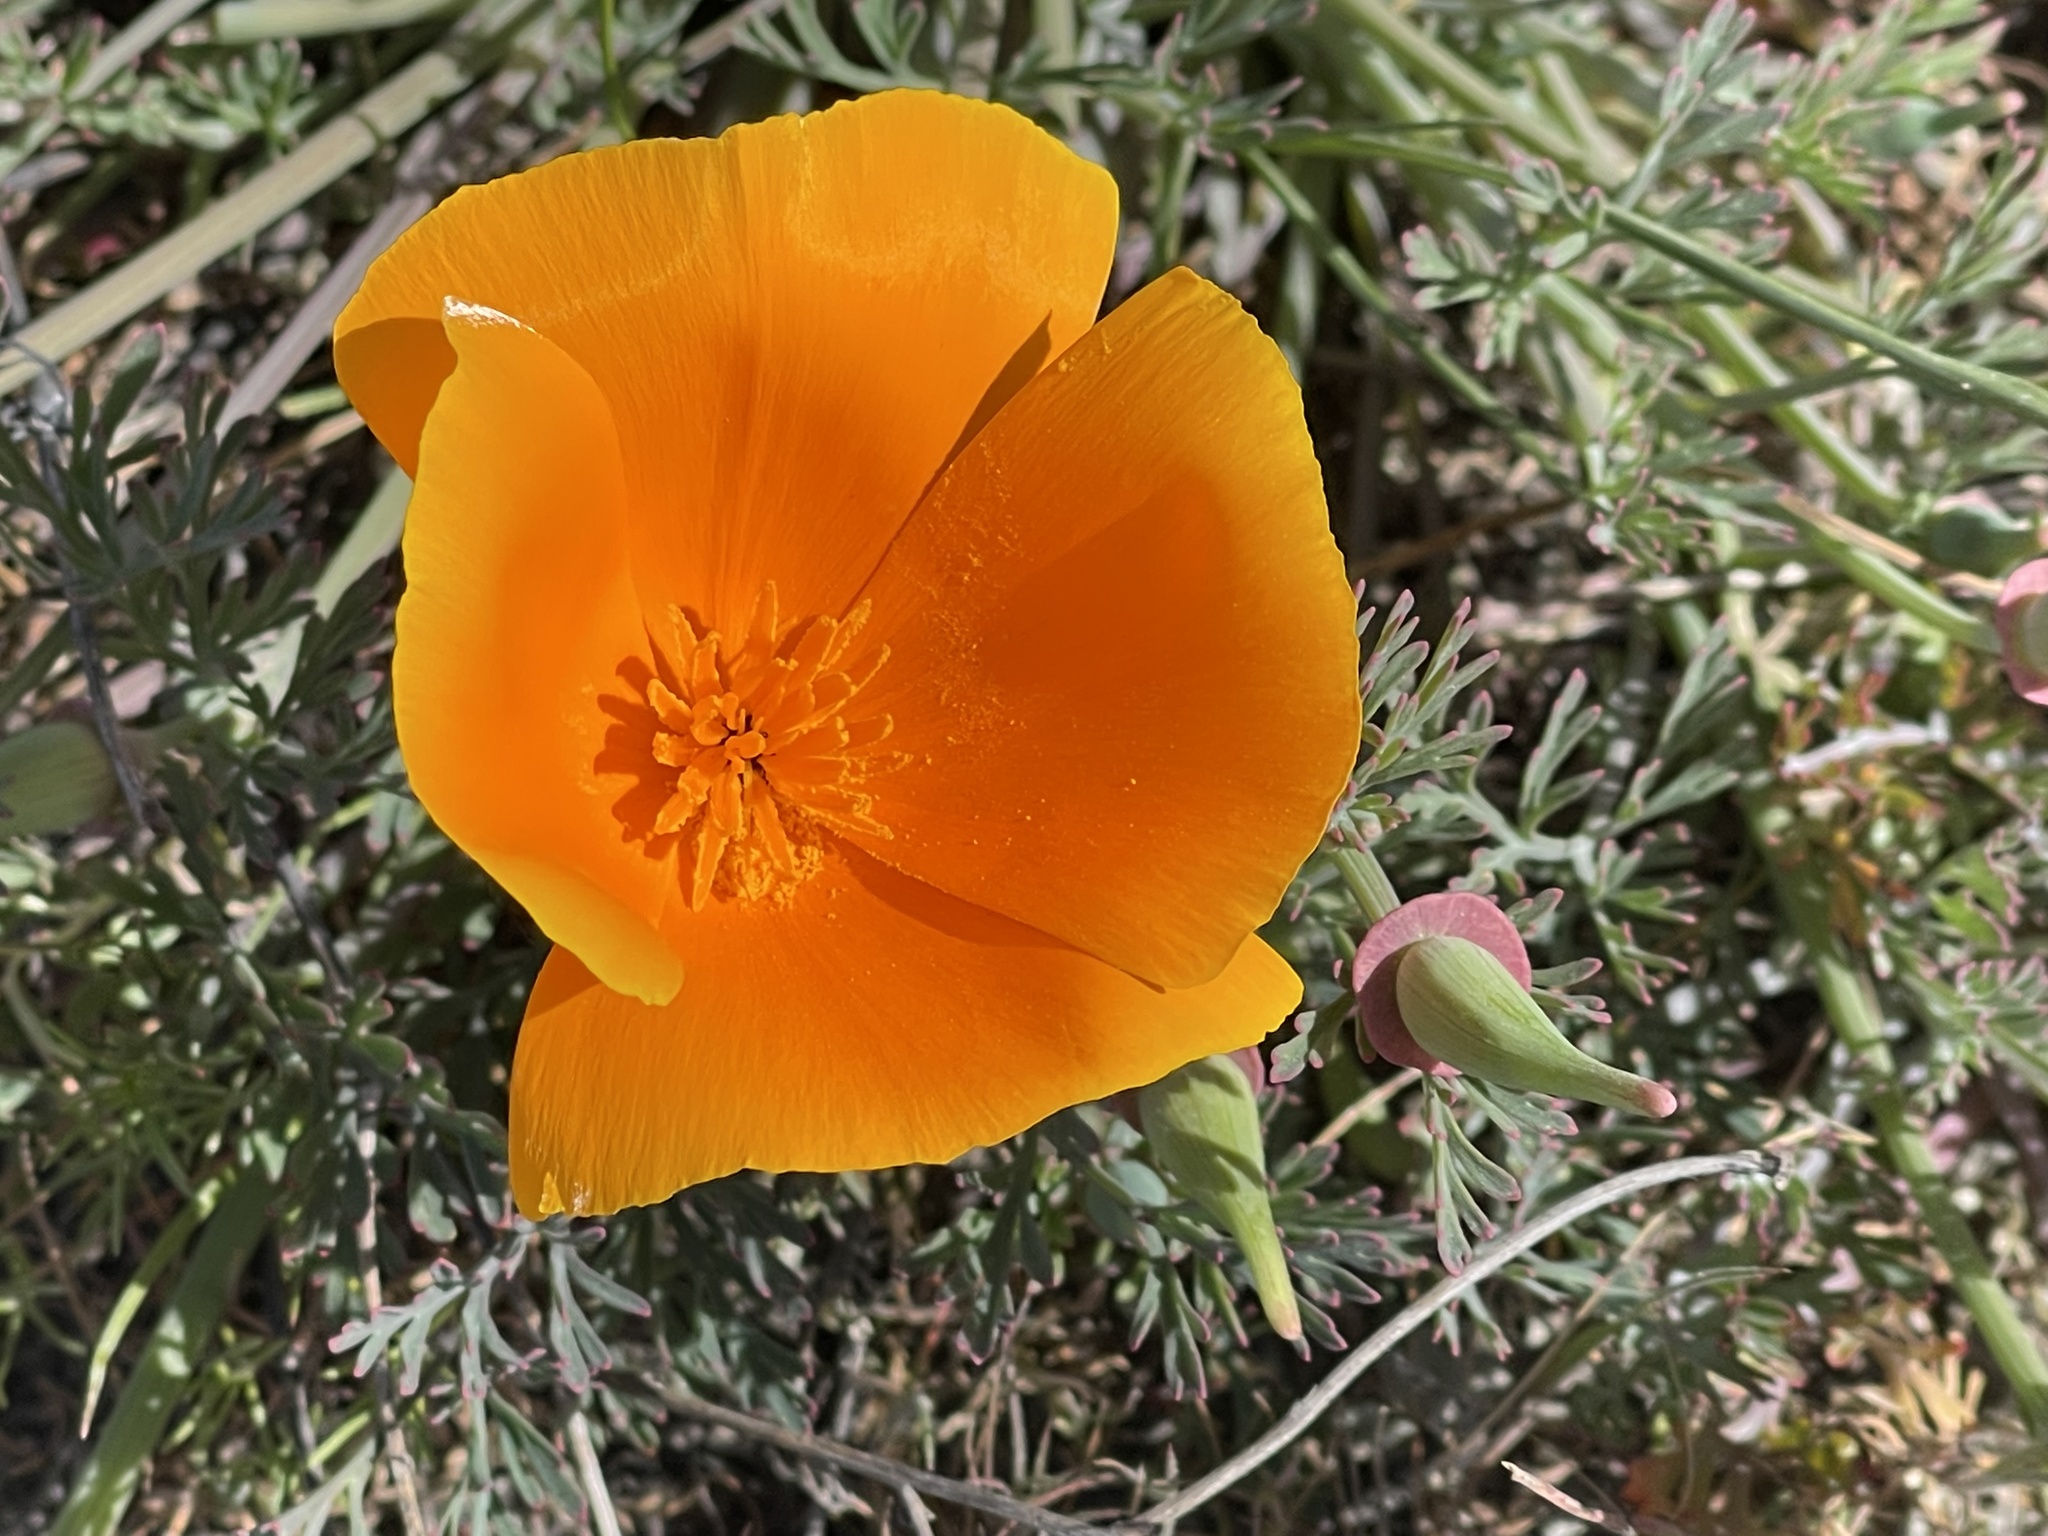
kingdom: Plantae
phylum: Tracheophyta
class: Magnoliopsida
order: Ranunculales
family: Papaveraceae
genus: Eschscholzia
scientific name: Eschscholzia californica
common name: California poppy
